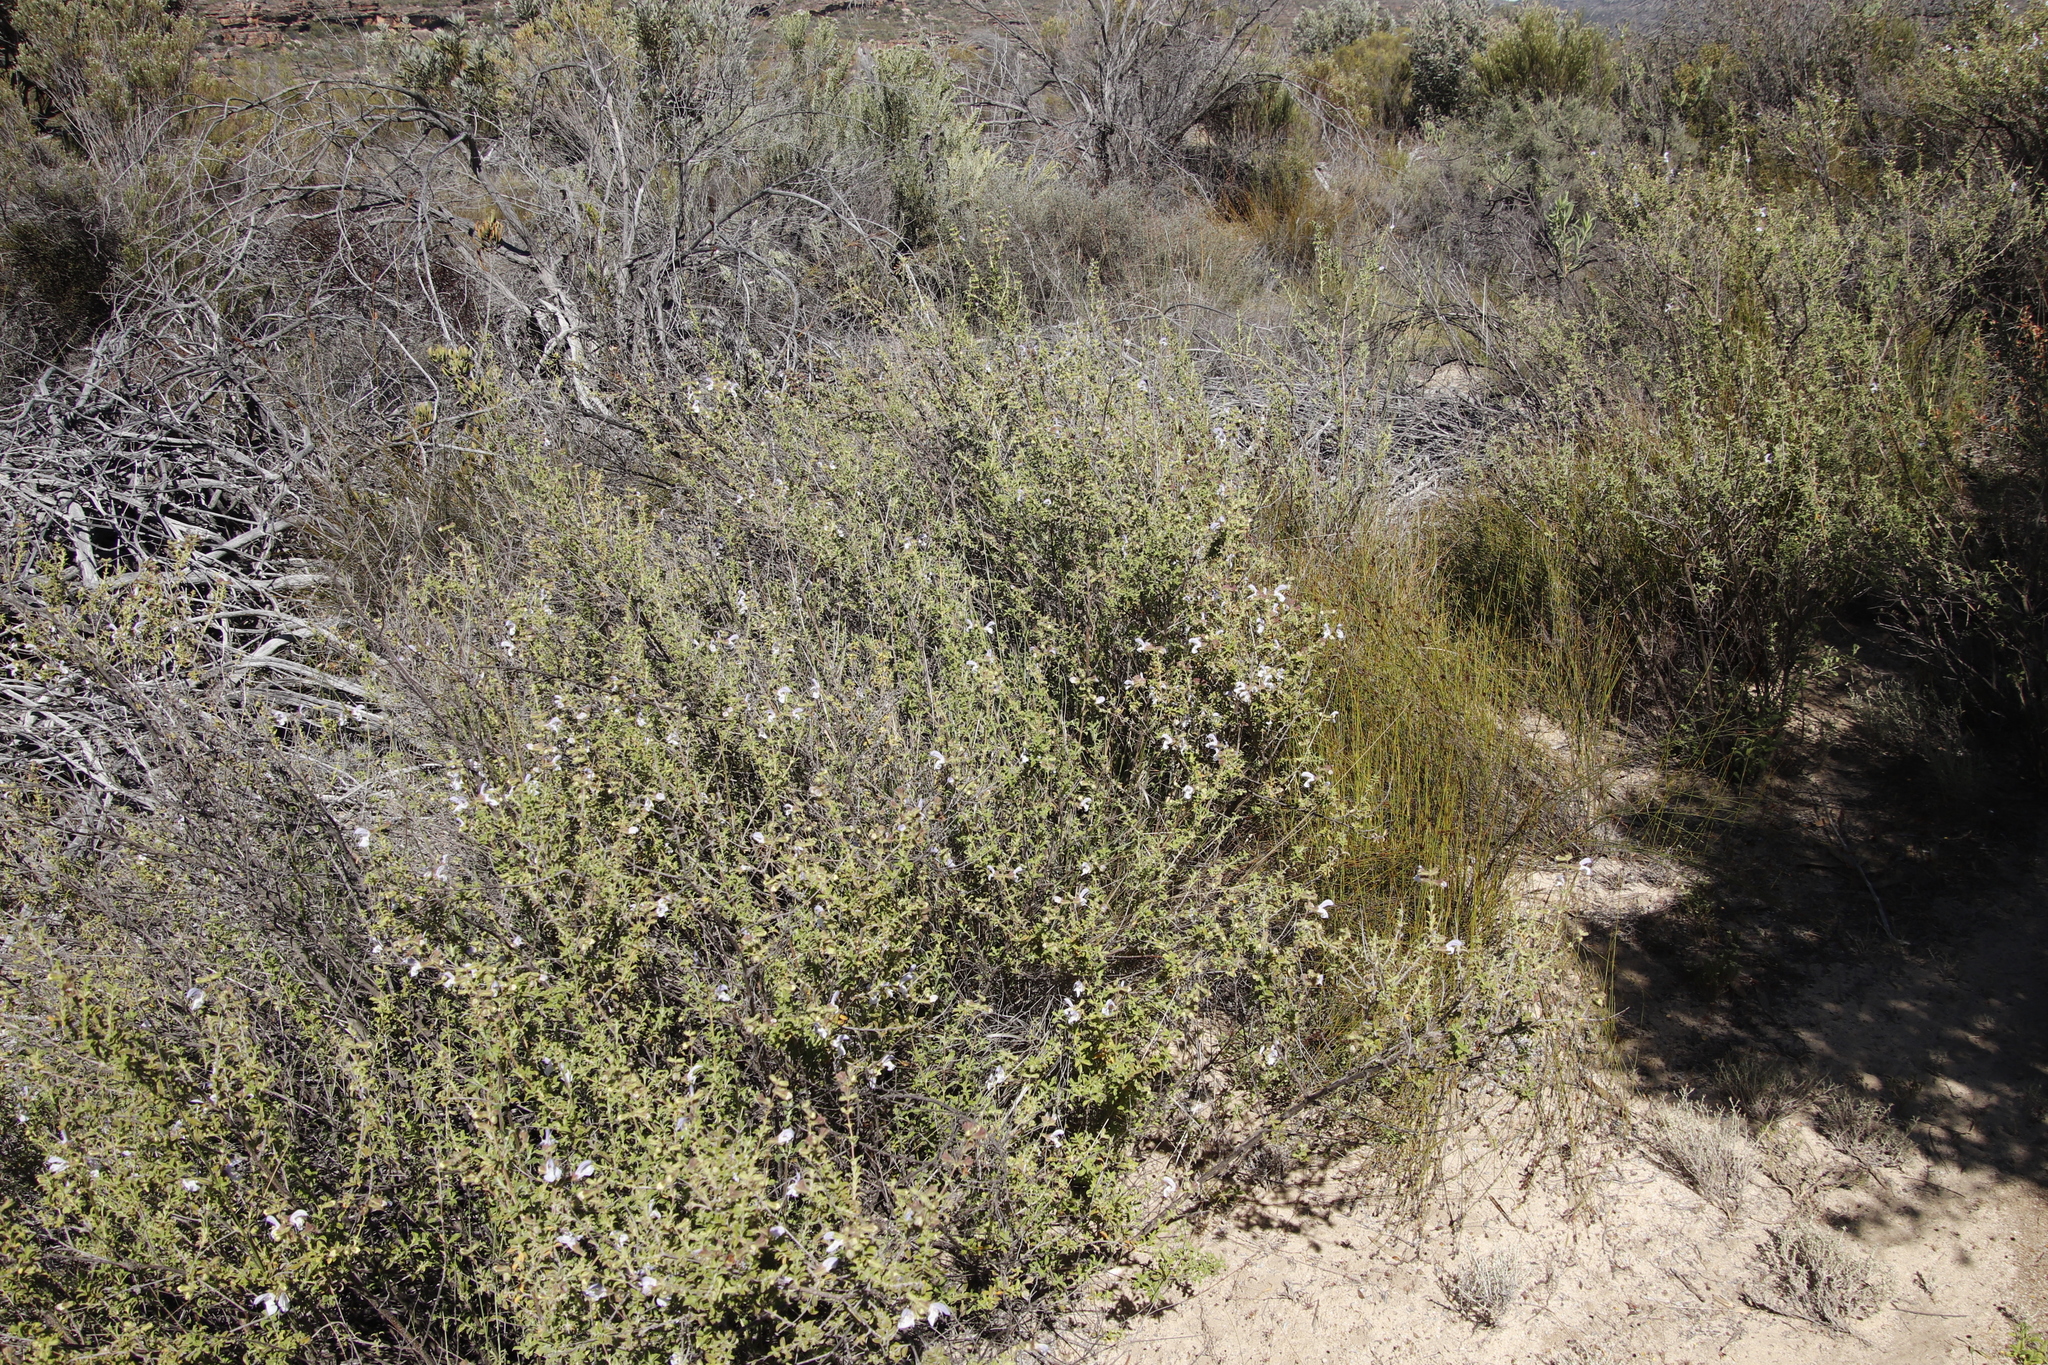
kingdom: Plantae
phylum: Tracheophyta
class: Magnoliopsida
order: Lamiales
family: Lamiaceae
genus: Salvia
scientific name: Salvia dentata
